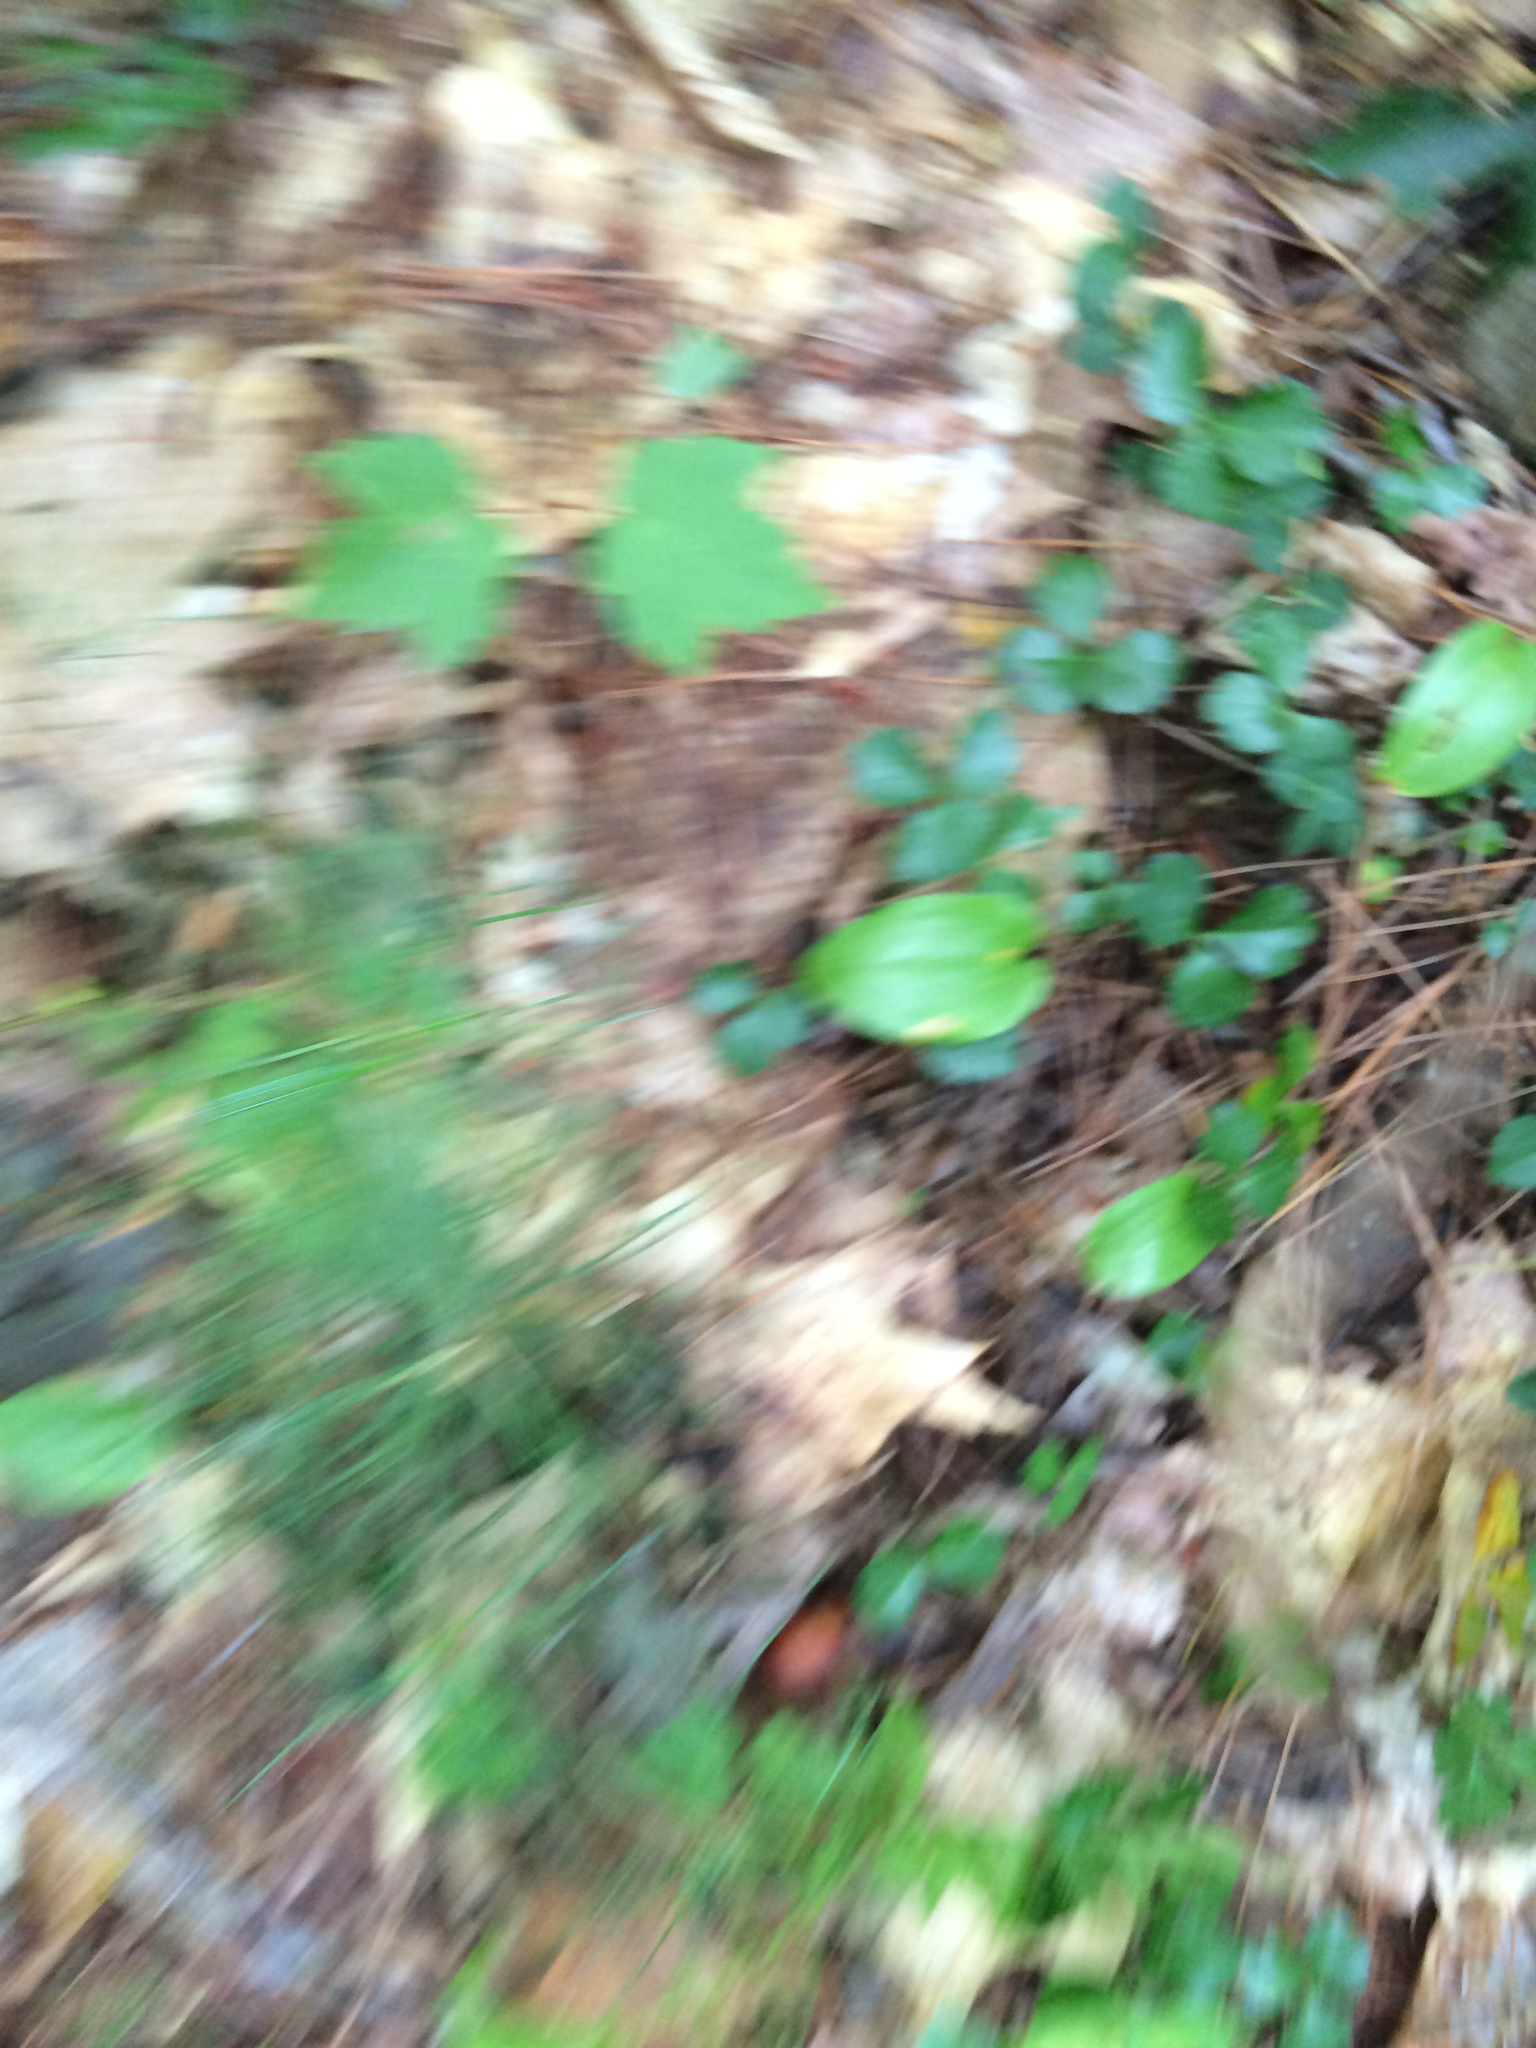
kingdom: Plantae
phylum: Tracheophyta
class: Magnoliopsida
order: Ranunculales
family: Ranunculaceae
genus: Coptis
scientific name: Coptis trifolia
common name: Canker-root
